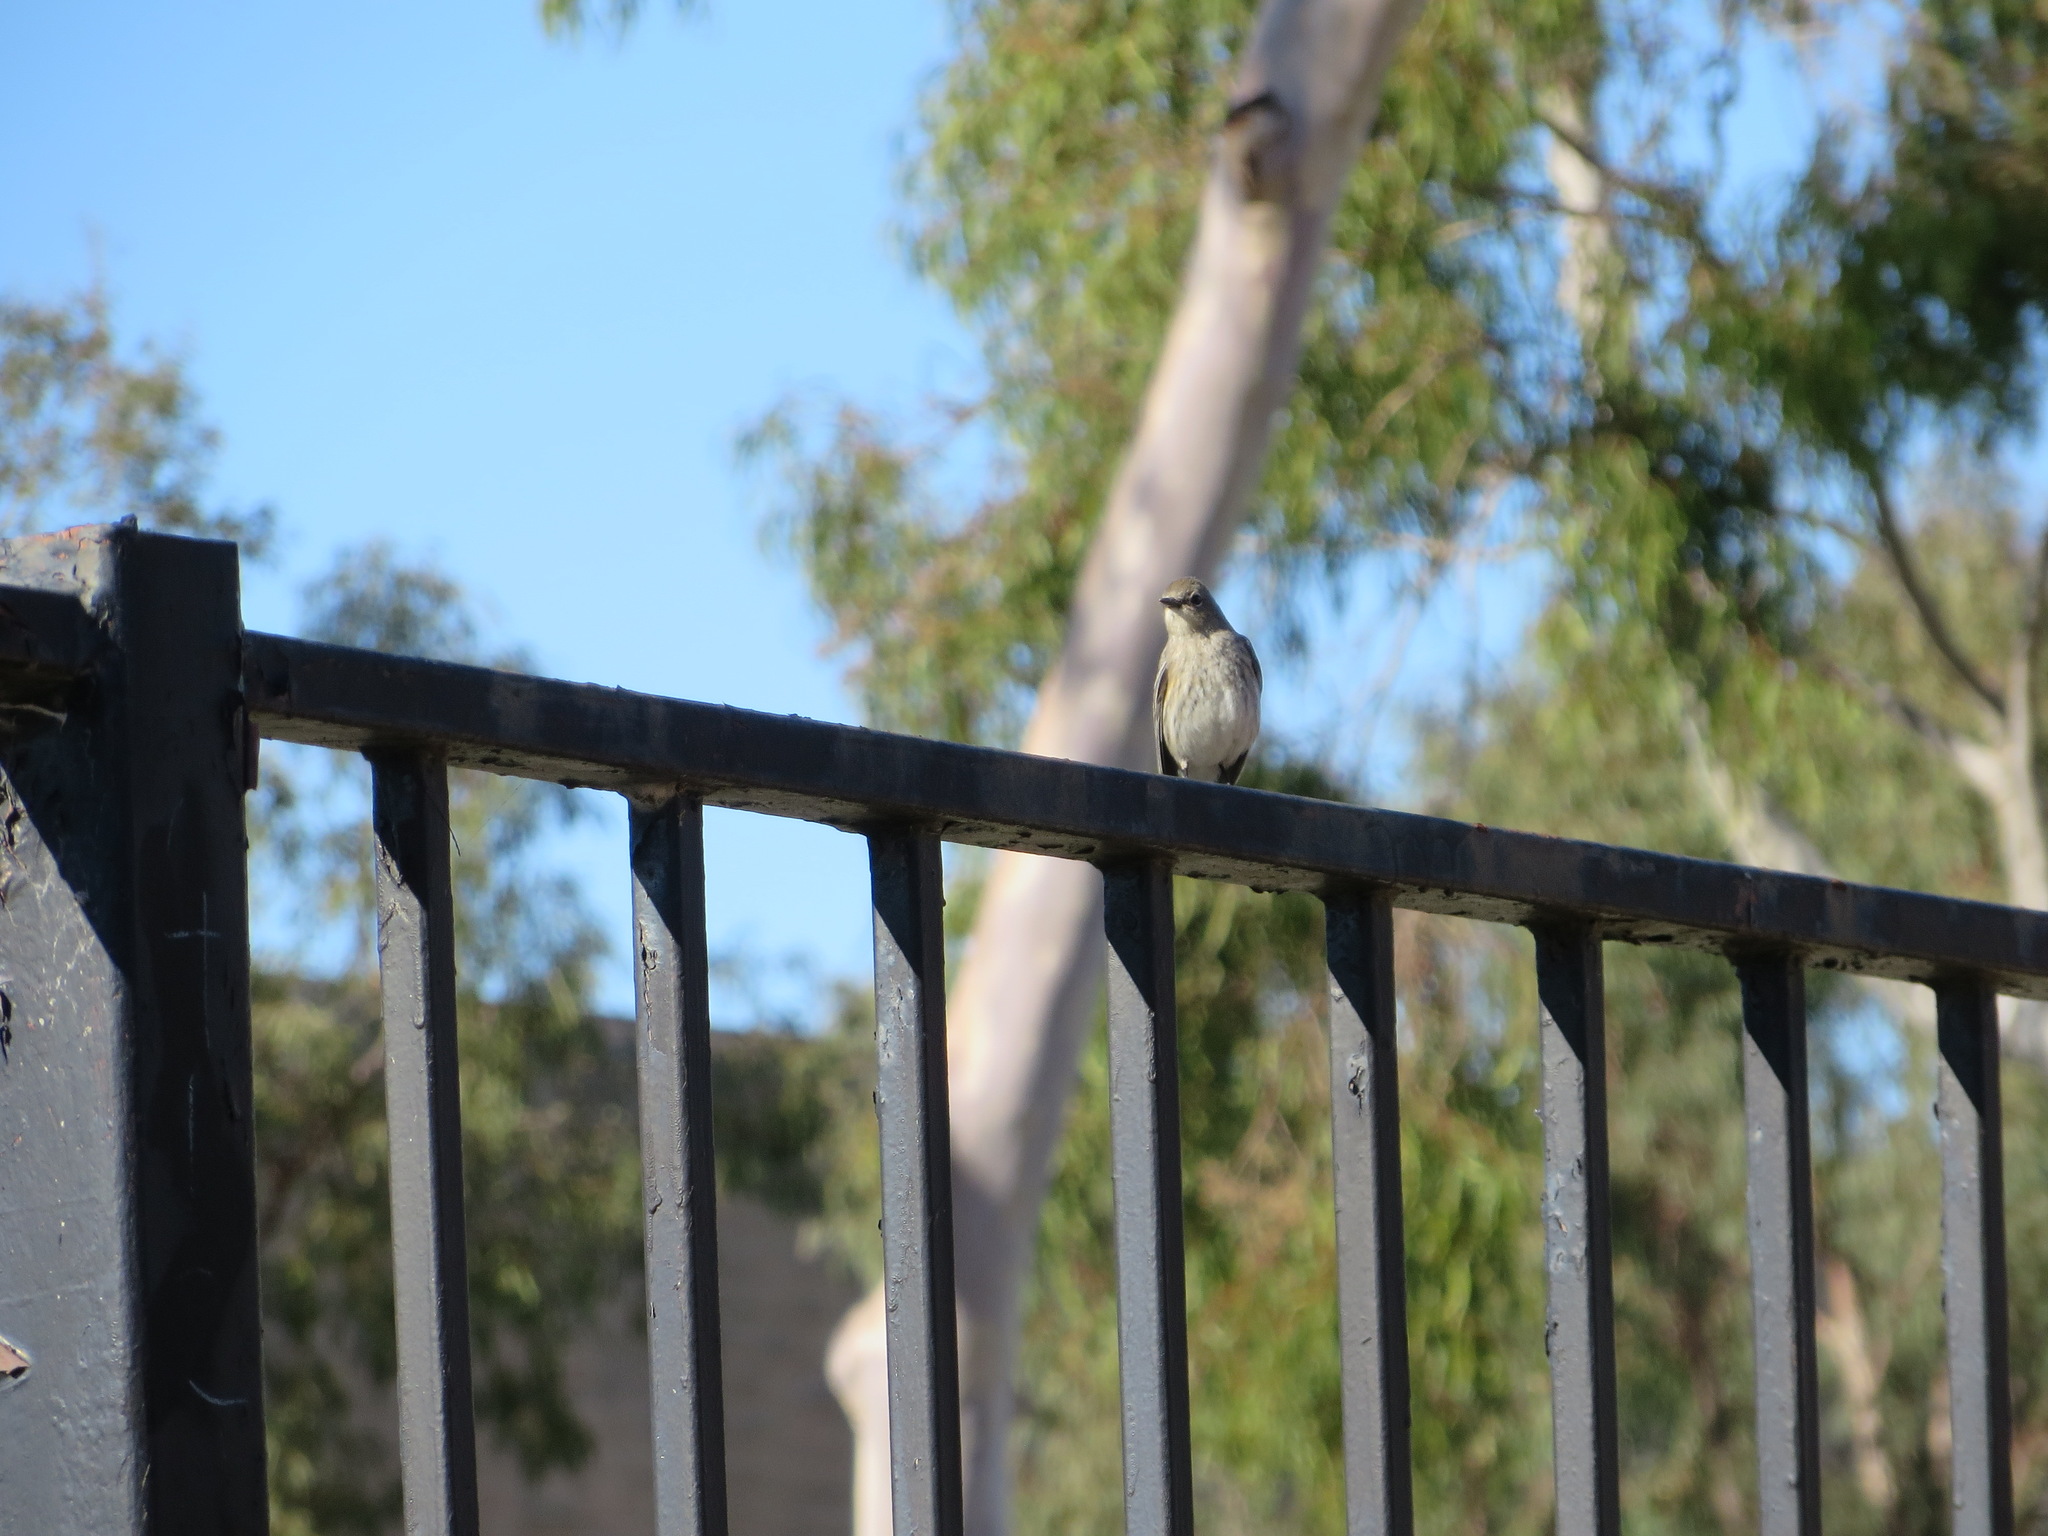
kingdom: Animalia
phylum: Chordata
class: Aves
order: Passeriformes
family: Parulidae
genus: Setophaga
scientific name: Setophaga coronata
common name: Myrtle warbler
